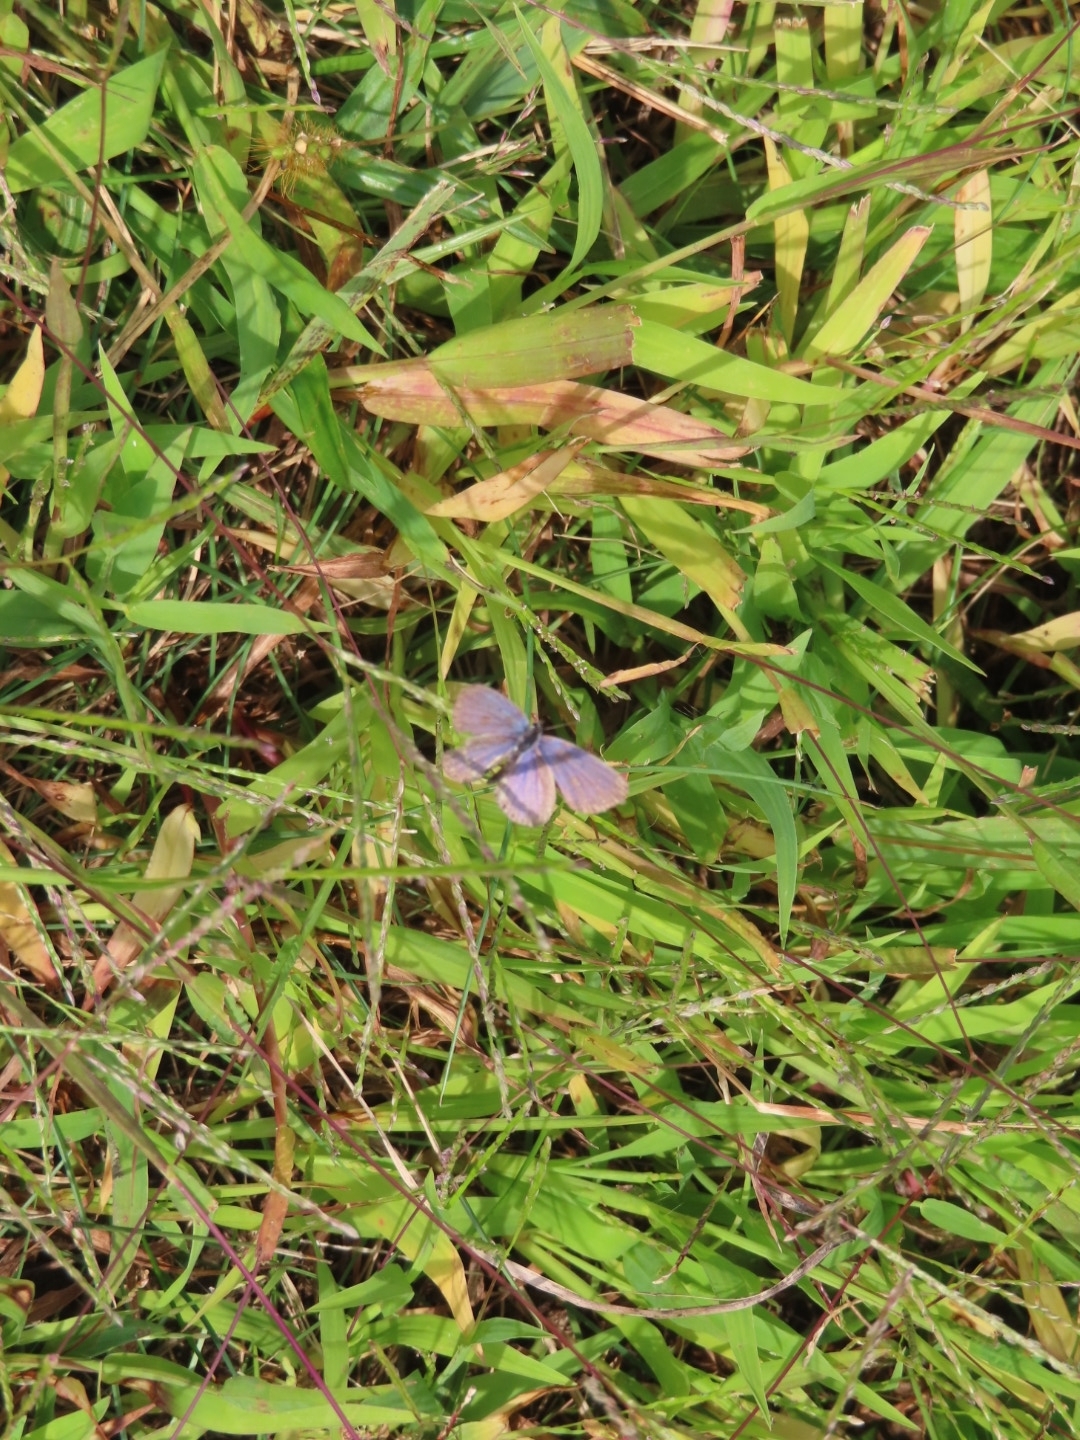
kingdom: Animalia
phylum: Arthropoda
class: Insecta
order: Lepidoptera
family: Lycaenidae
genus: Elkalyce
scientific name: Elkalyce comyntas
